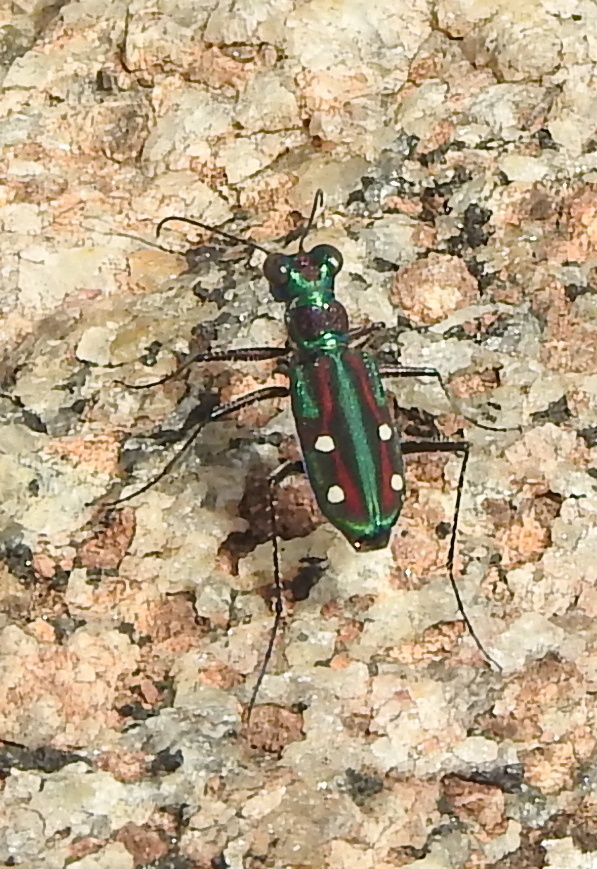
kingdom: Animalia
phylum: Arthropoda
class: Insecta
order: Coleoptera
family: Carabidae
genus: Jansenia
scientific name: Jansenia rugosiceps
